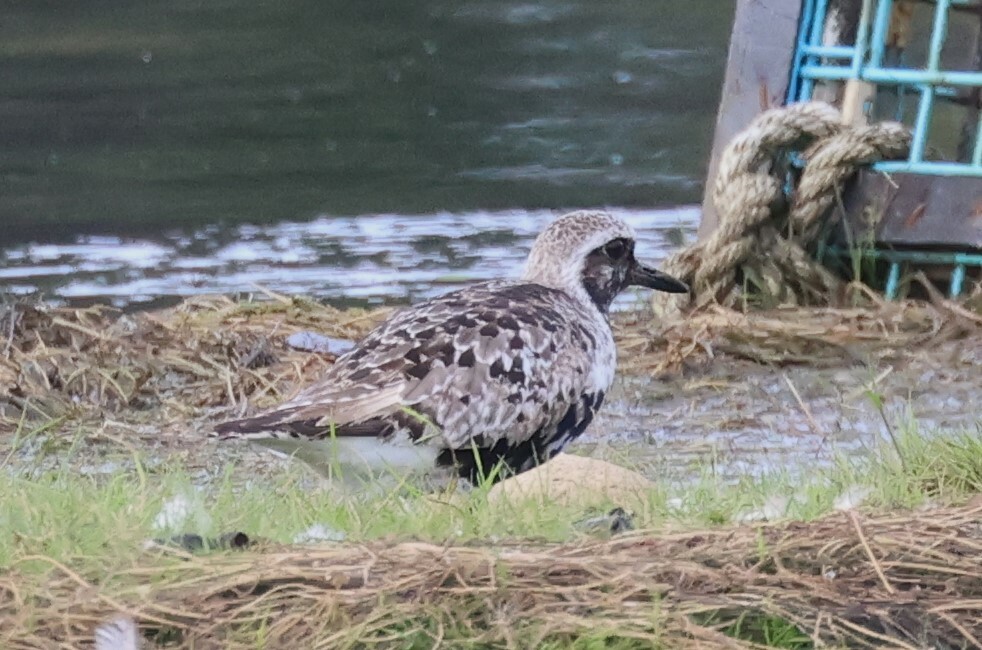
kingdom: Animalia
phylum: Chordata
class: Aves
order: Charadriiformes
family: Charadriidae
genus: Pluvialis
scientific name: Pluvialis squatarola
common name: Grey plover
